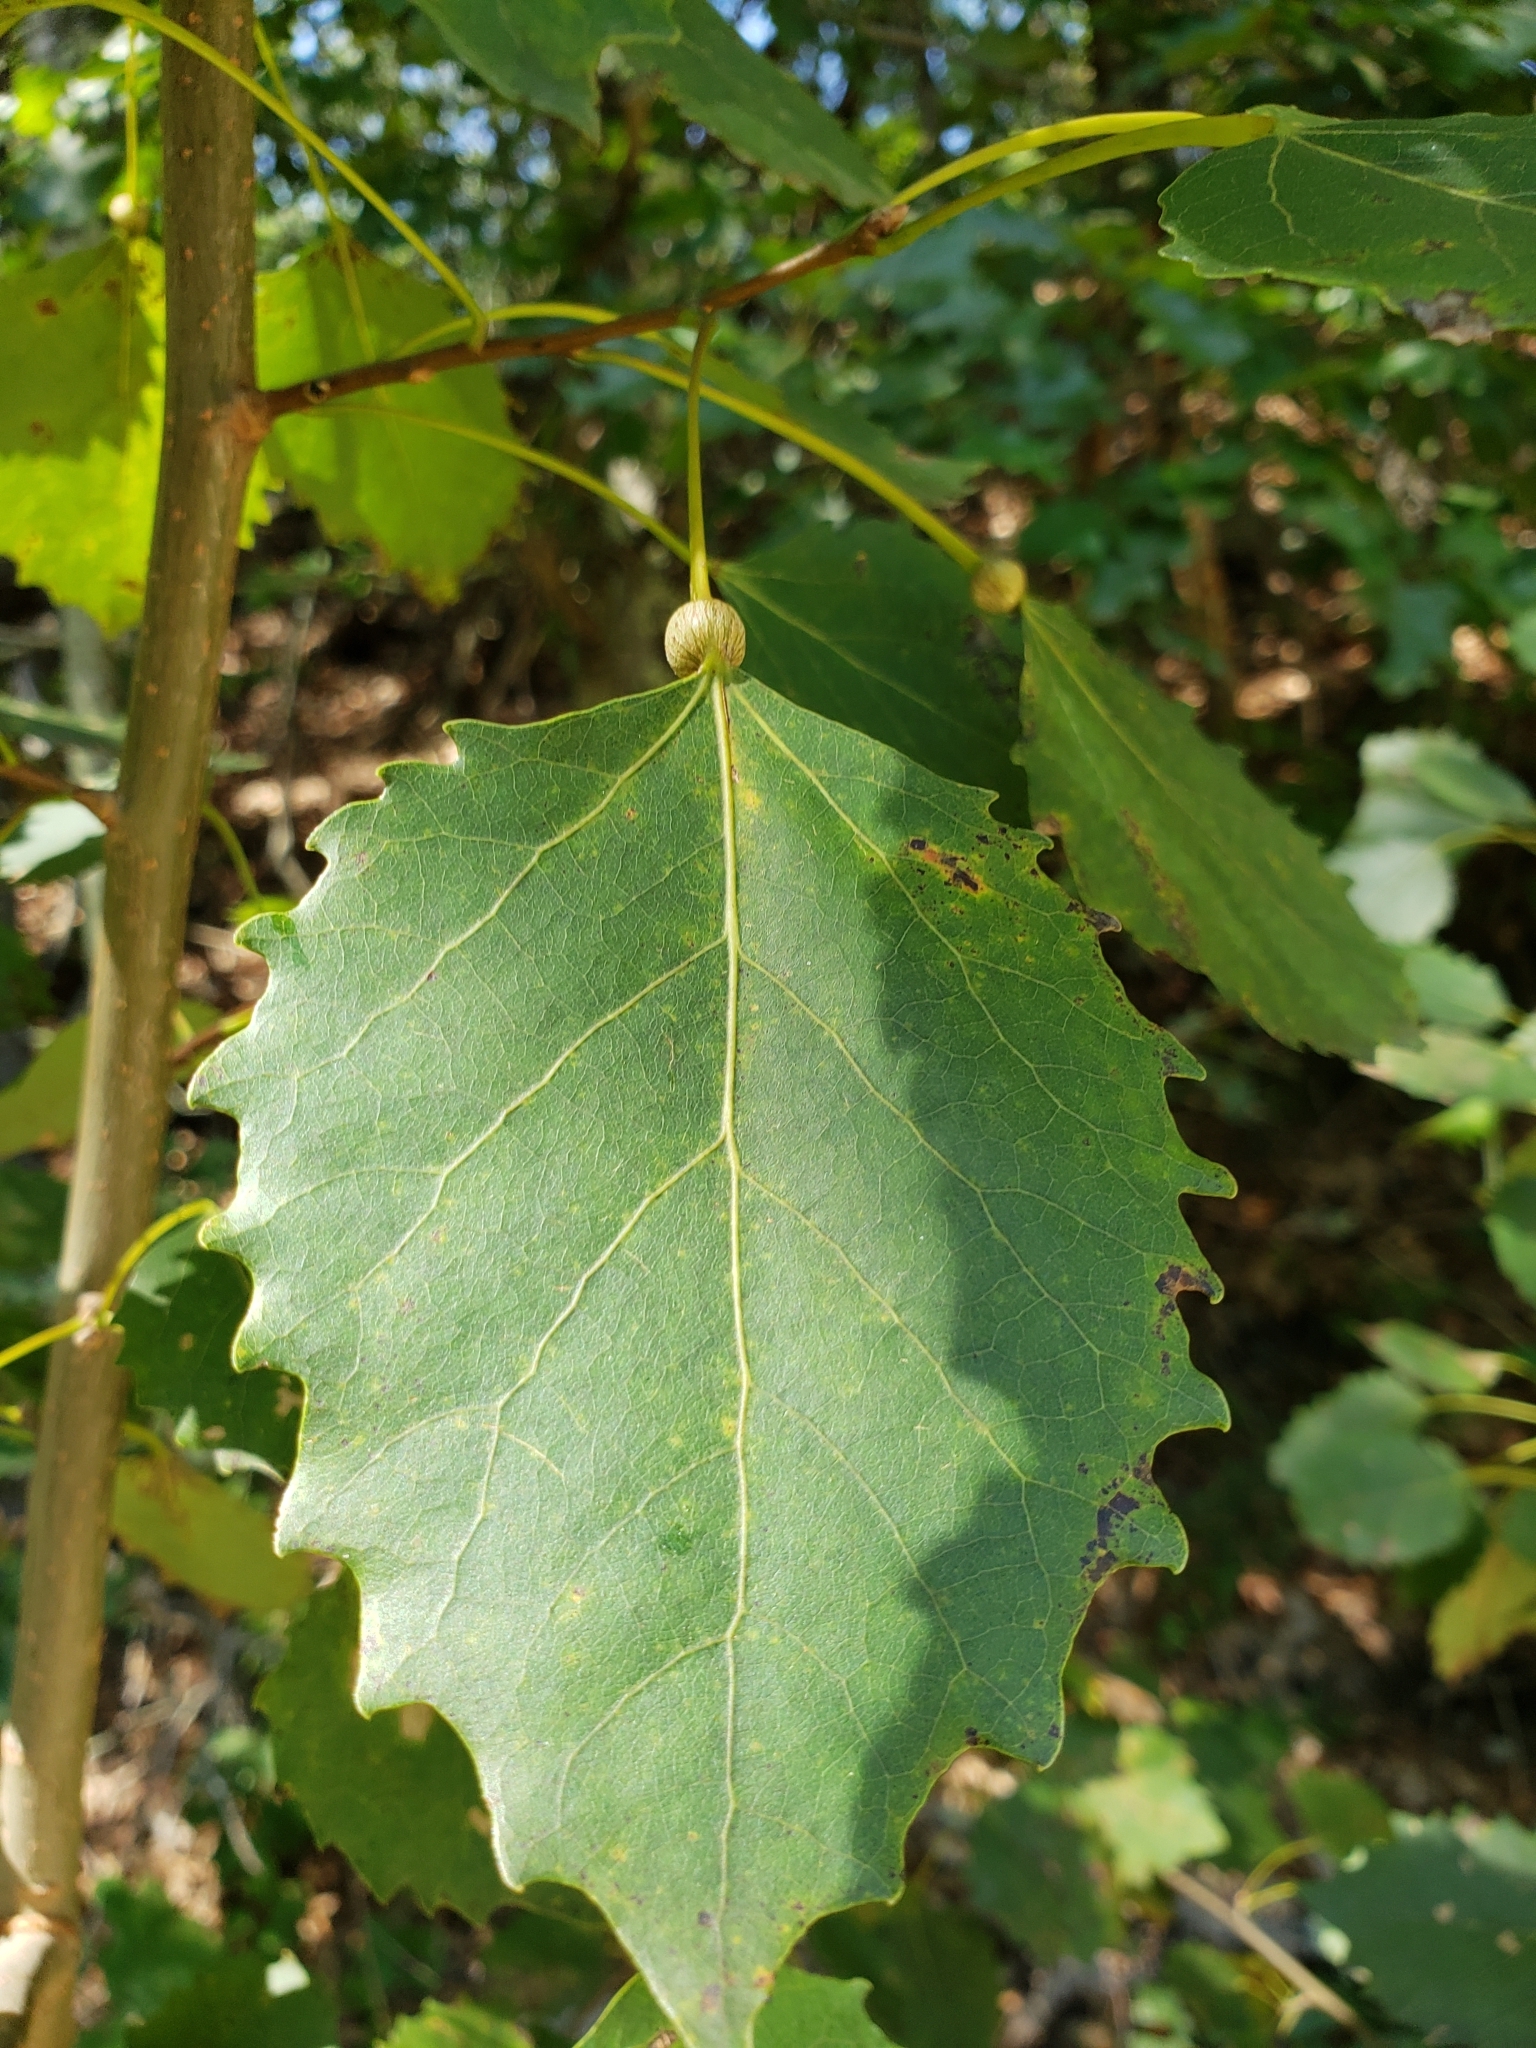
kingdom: Animalia
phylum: Arthropoda
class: Insecta
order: Lepidoptera
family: Nepticulidae
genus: Ectoedemia
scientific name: Ectoedemia populella
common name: Aspen petiole gall moth
